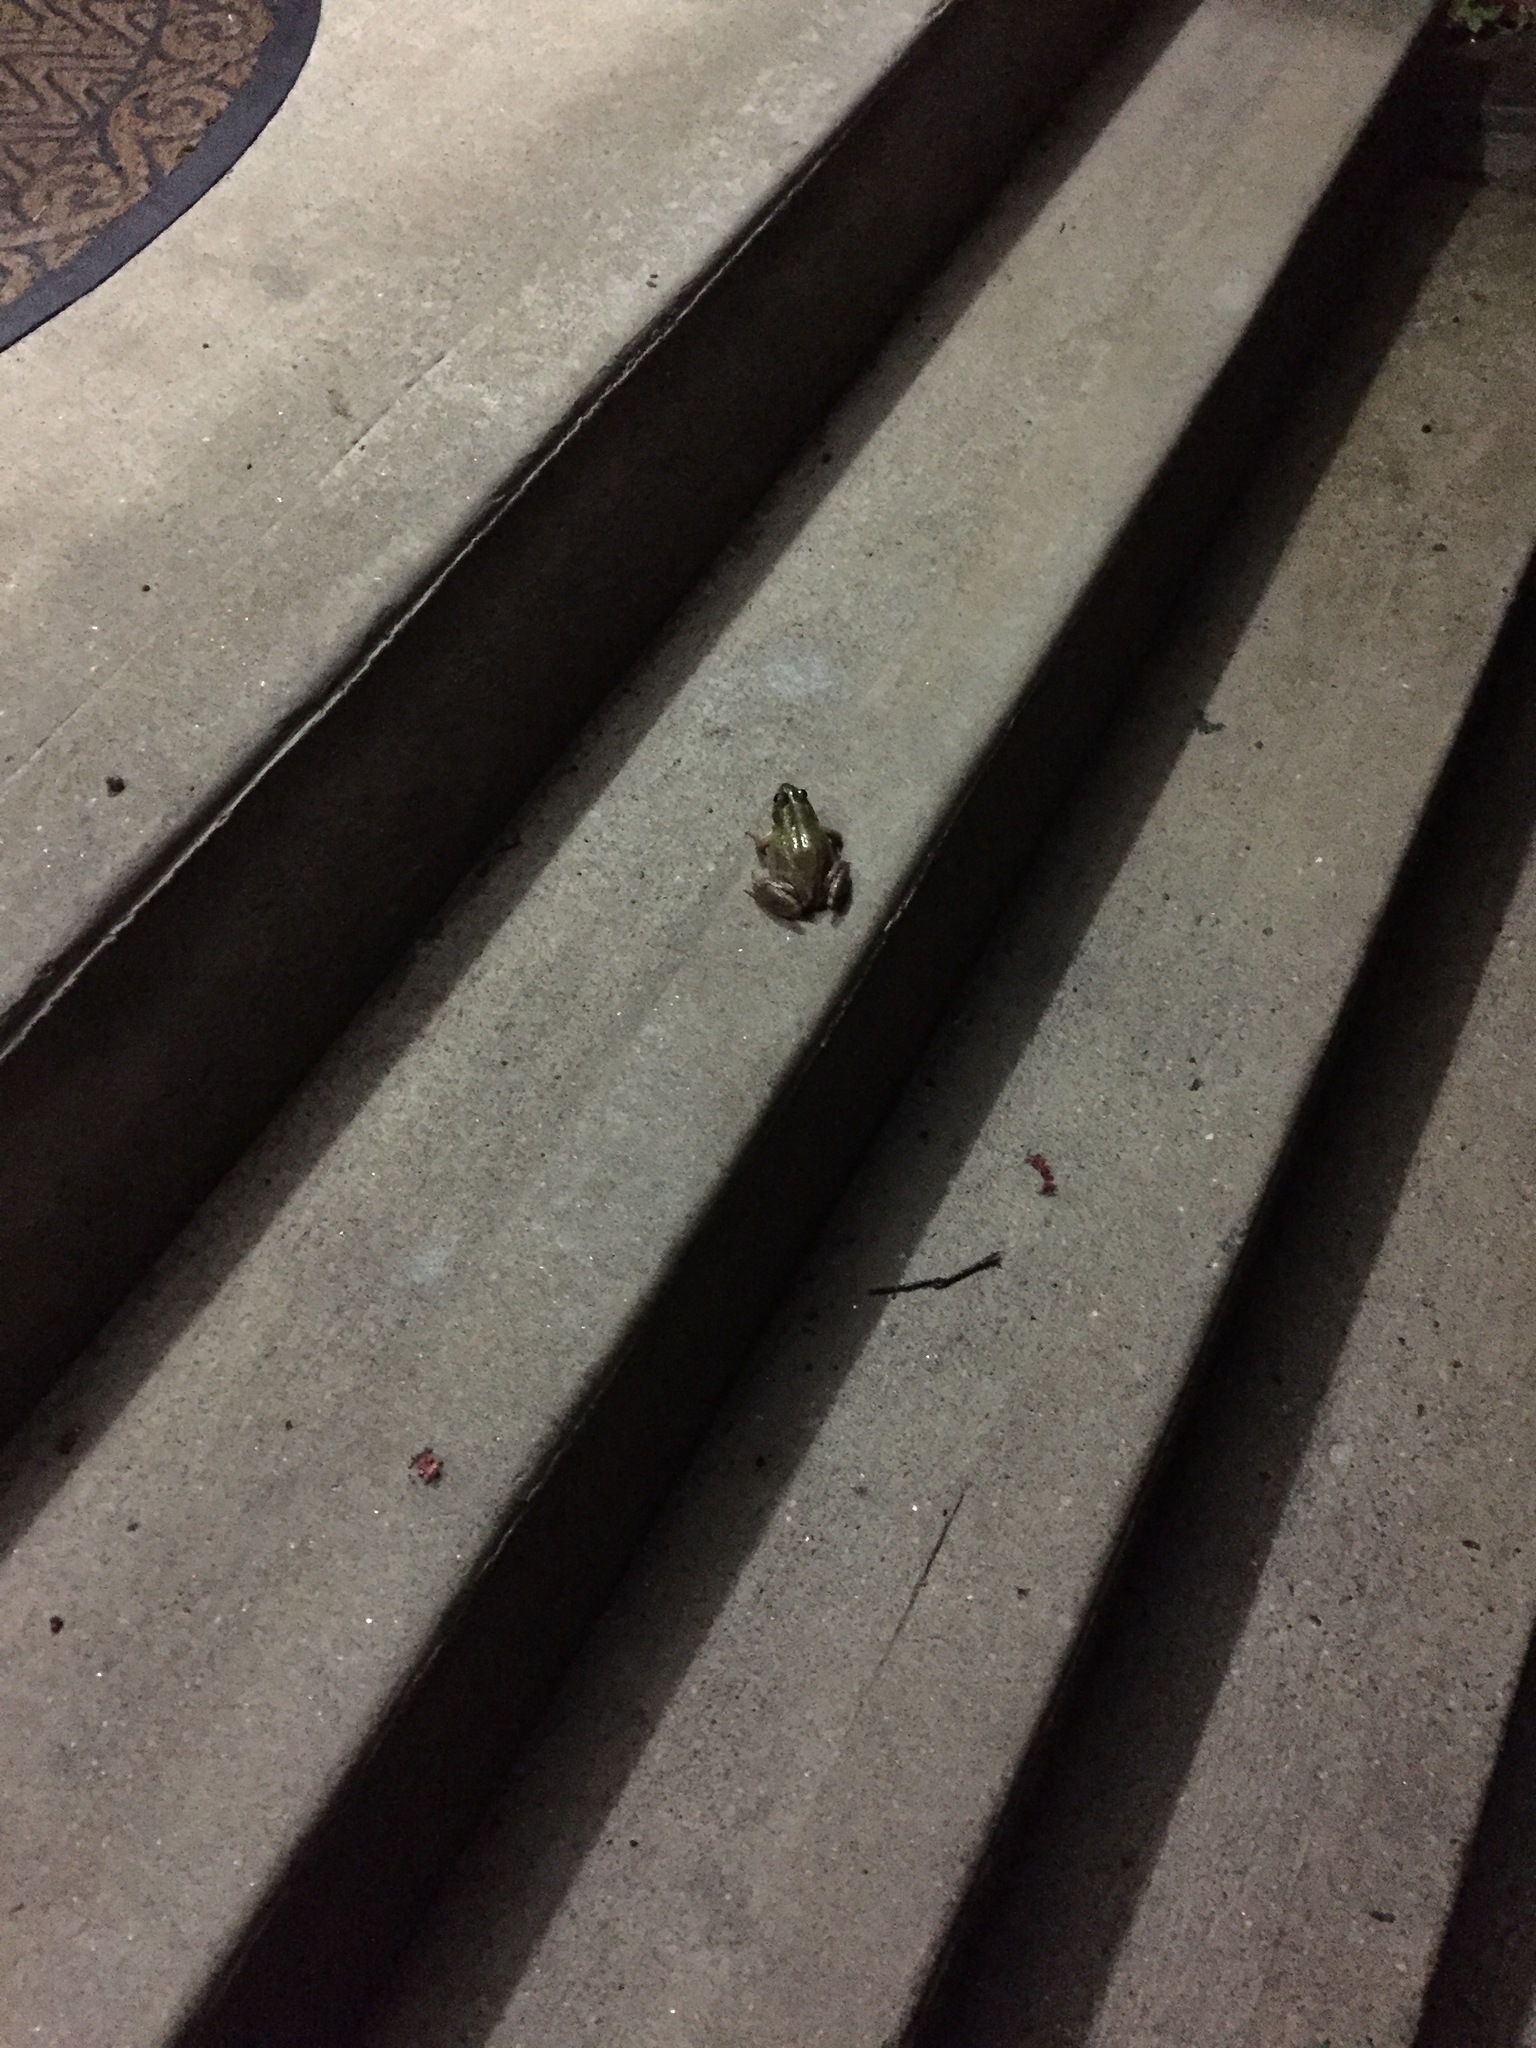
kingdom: Animalia
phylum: Chordata
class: Amphibia
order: Anura
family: Ranidae
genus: Lithobates
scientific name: Lithobates clamitans
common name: Green frog
